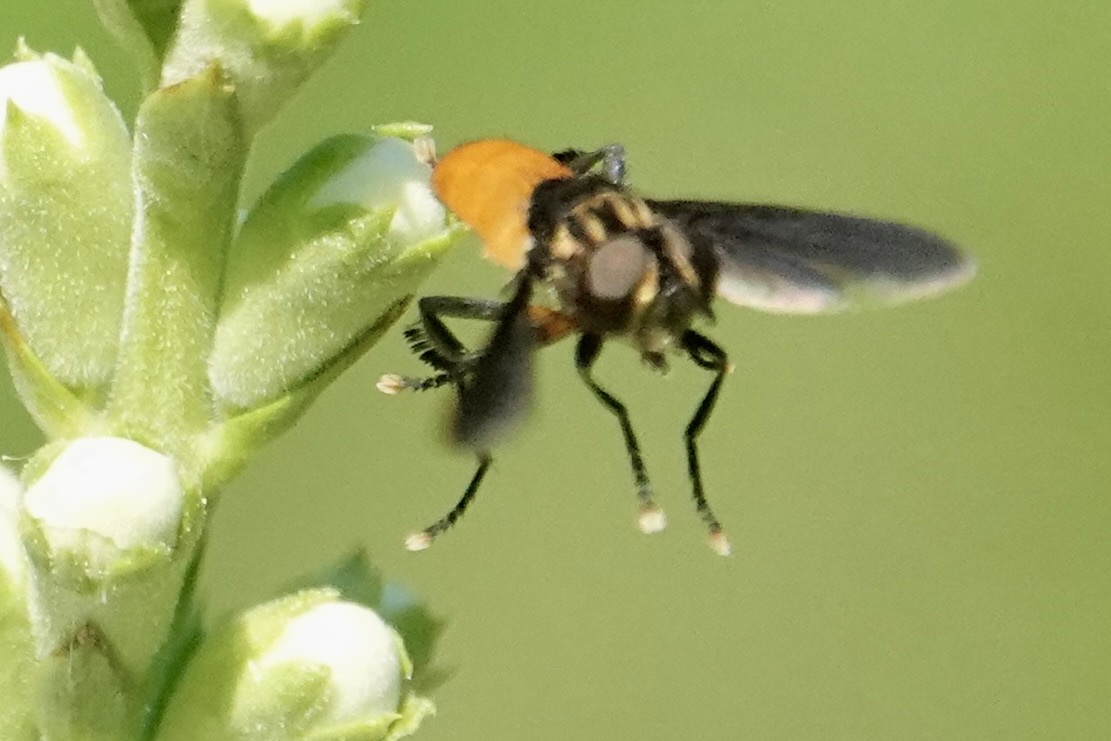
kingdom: Animalia
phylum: Arthropoda
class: Insecta
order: Diptera
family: Tachinidae
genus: Trichopoda
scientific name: Trichopoda pennipes
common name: Tachinid fly
